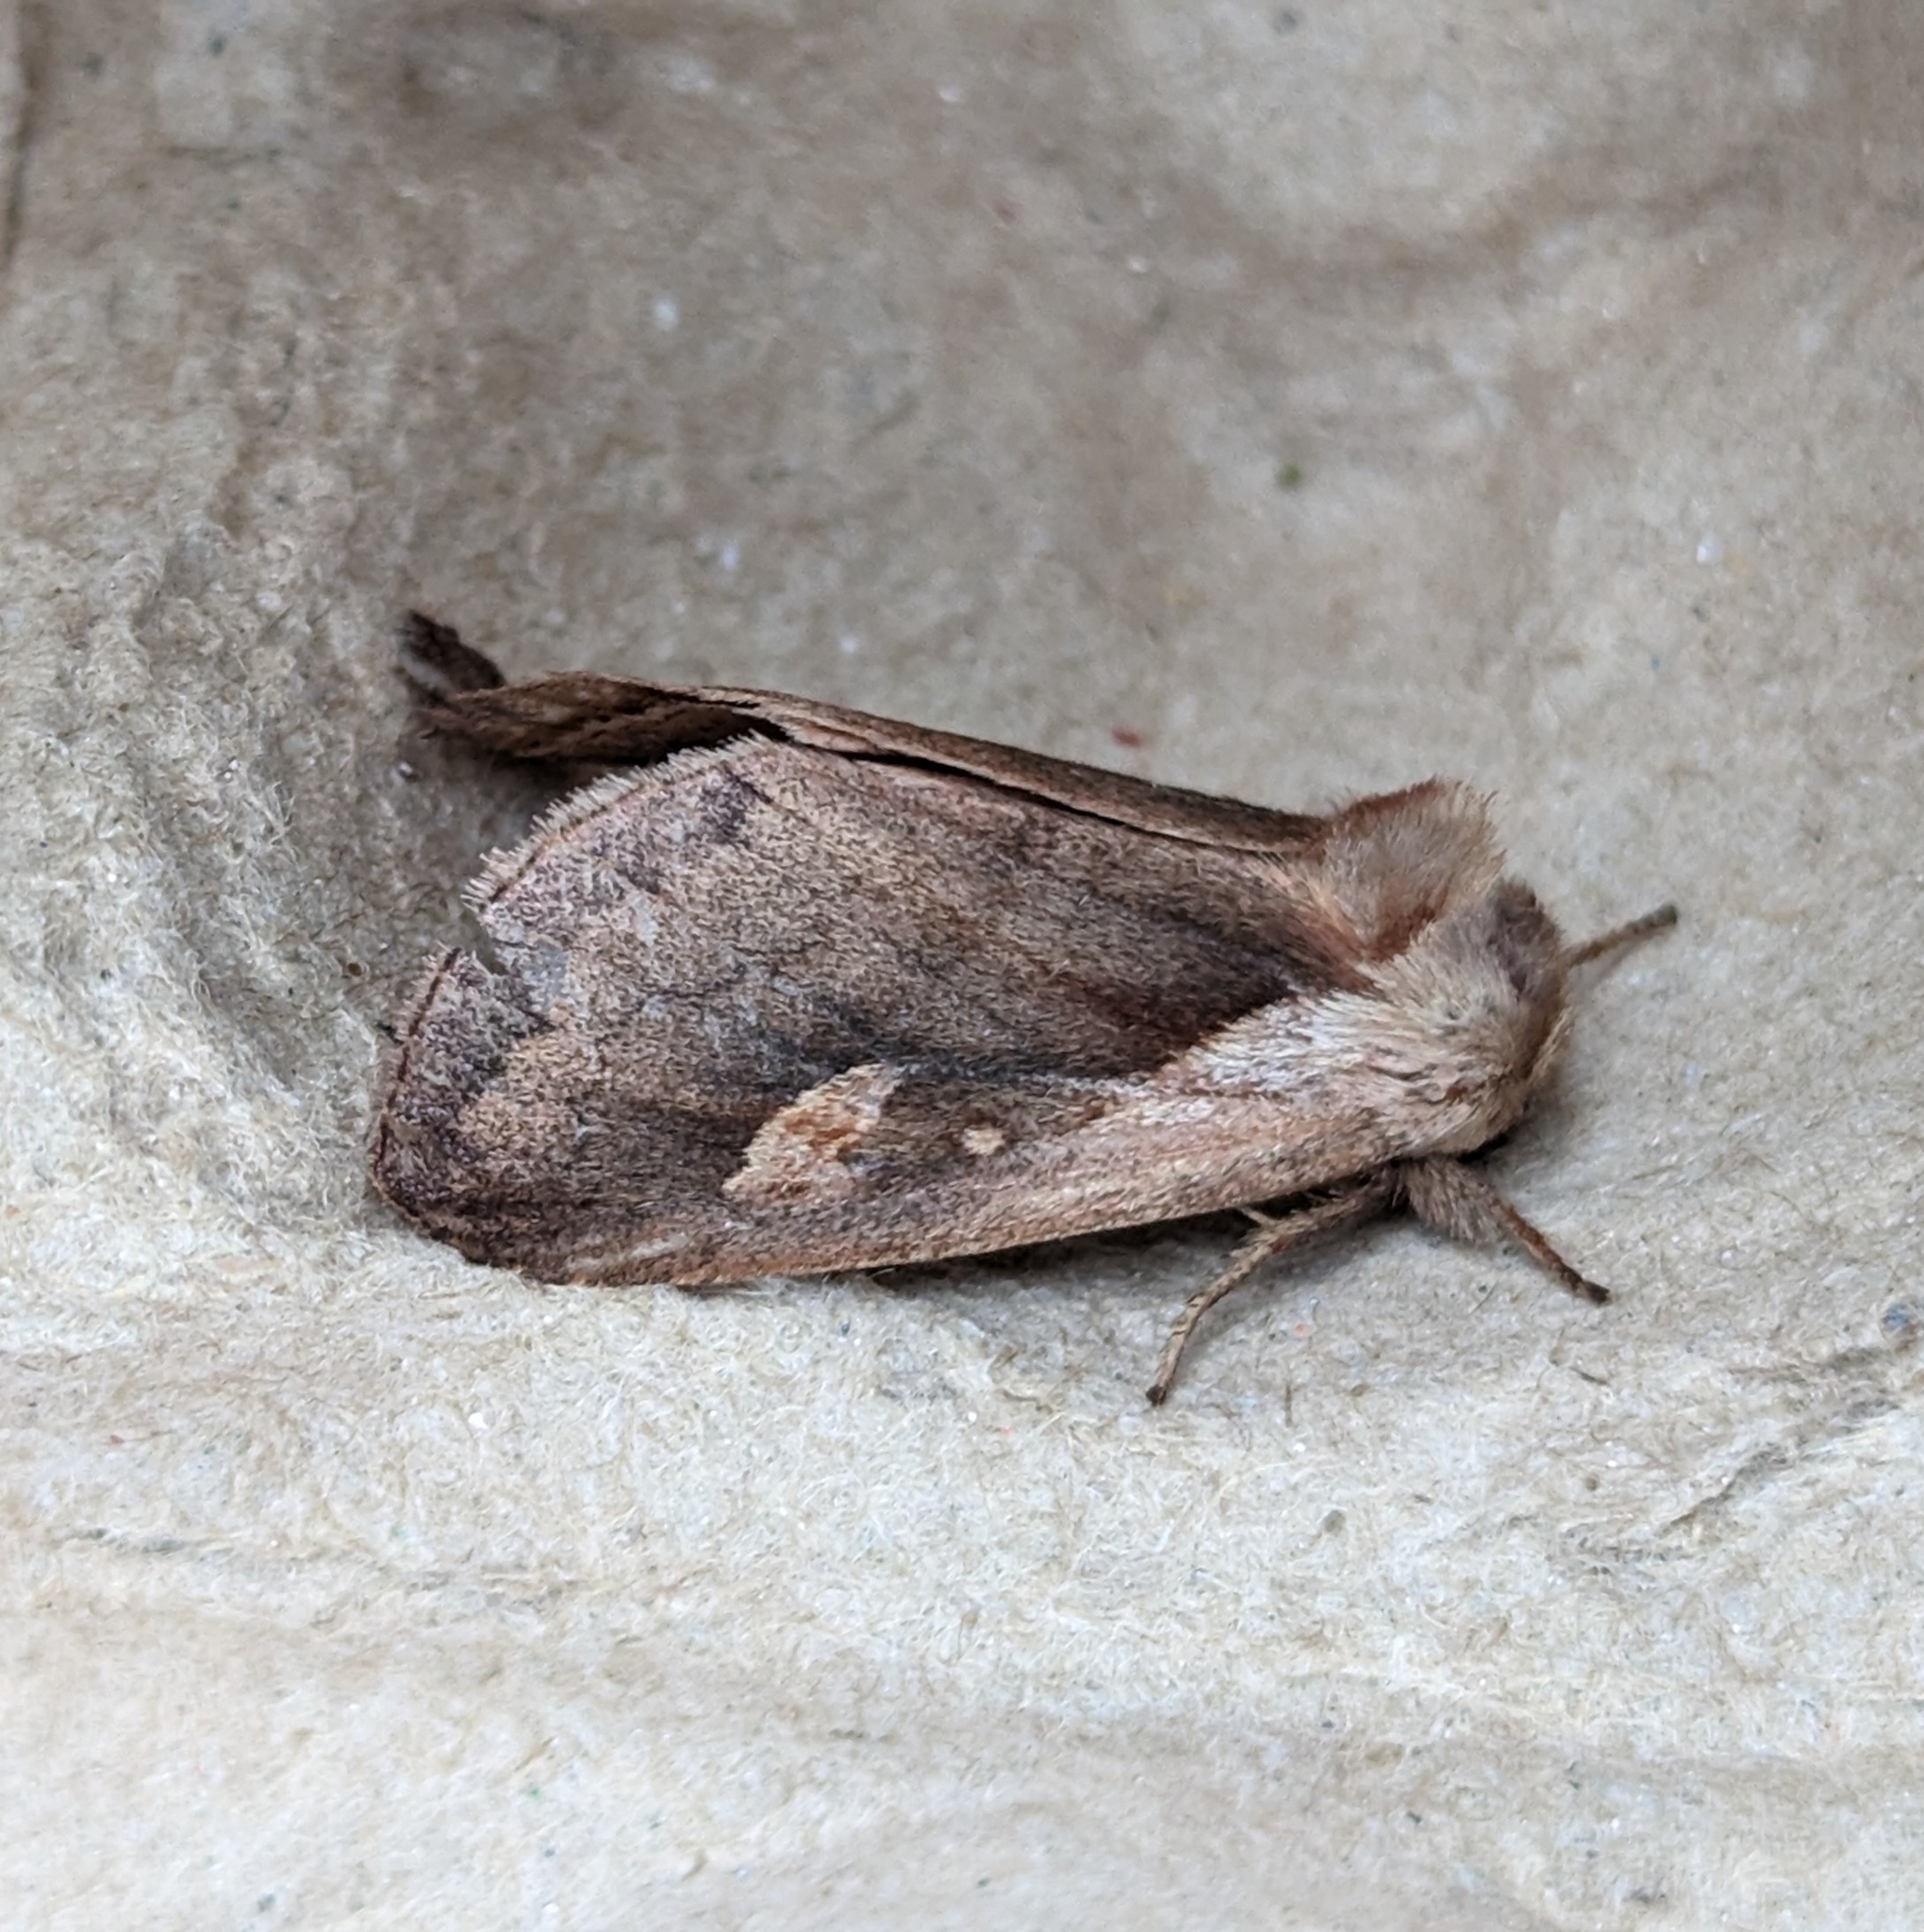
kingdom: Animalia
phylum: Arthropoda
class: Insecta
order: Lepidoptera
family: Noctuidae
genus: Bellura
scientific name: Bellura obliqua
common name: Cattail borer moth
